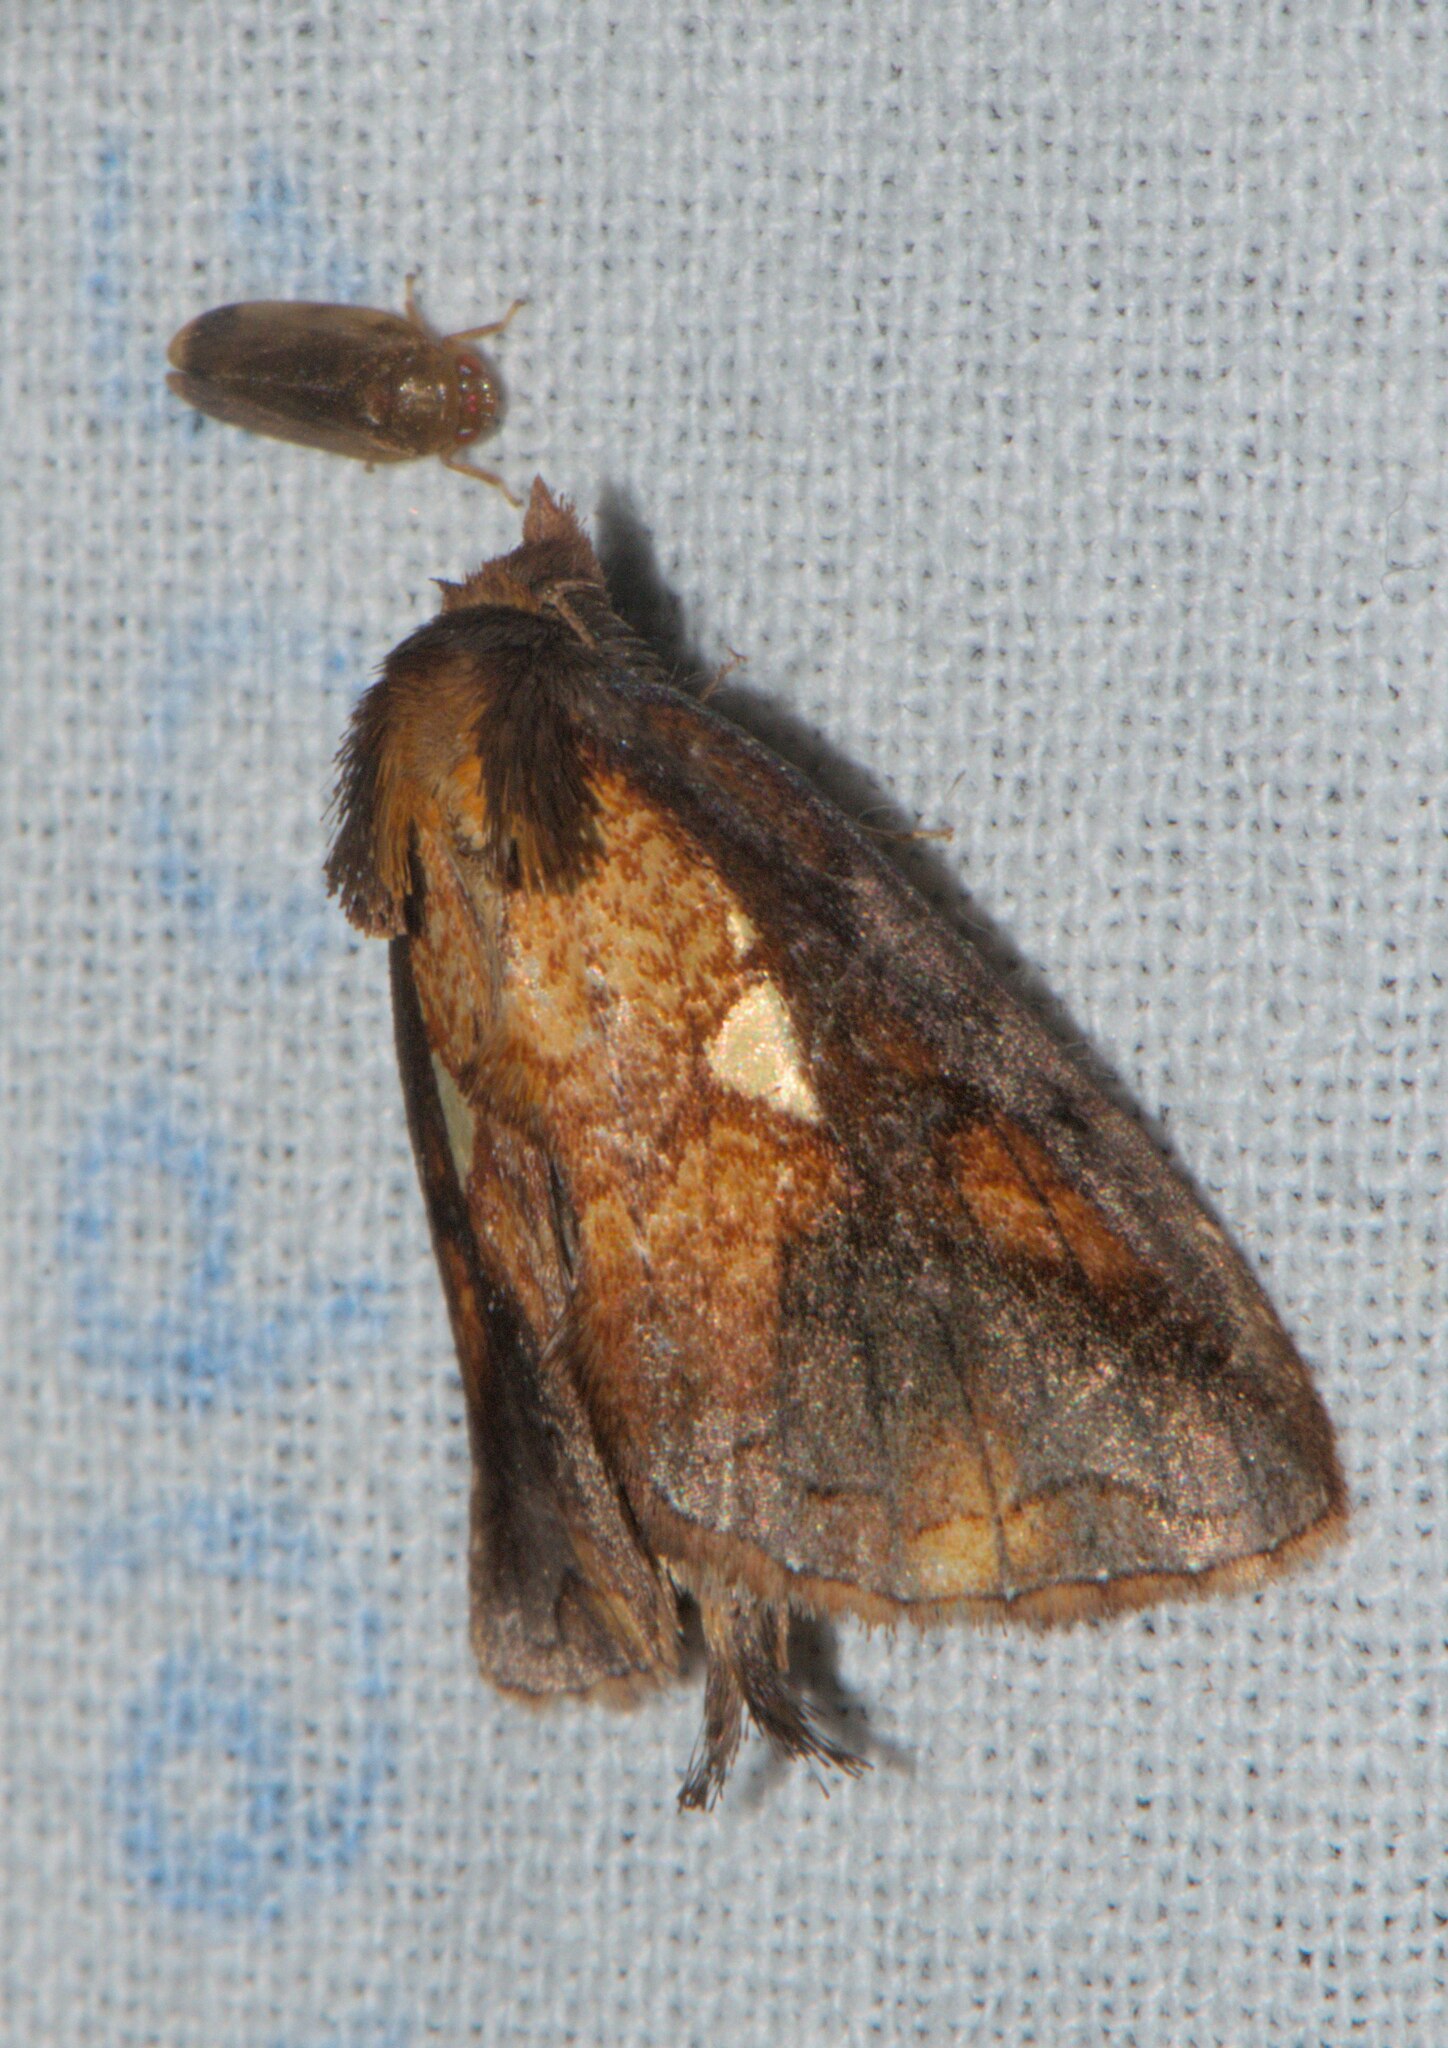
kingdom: Animalia
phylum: Arthropoda
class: Insecta
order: Lepidoptera
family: Notodontidae
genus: Rosama
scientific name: Rosama plusioides
